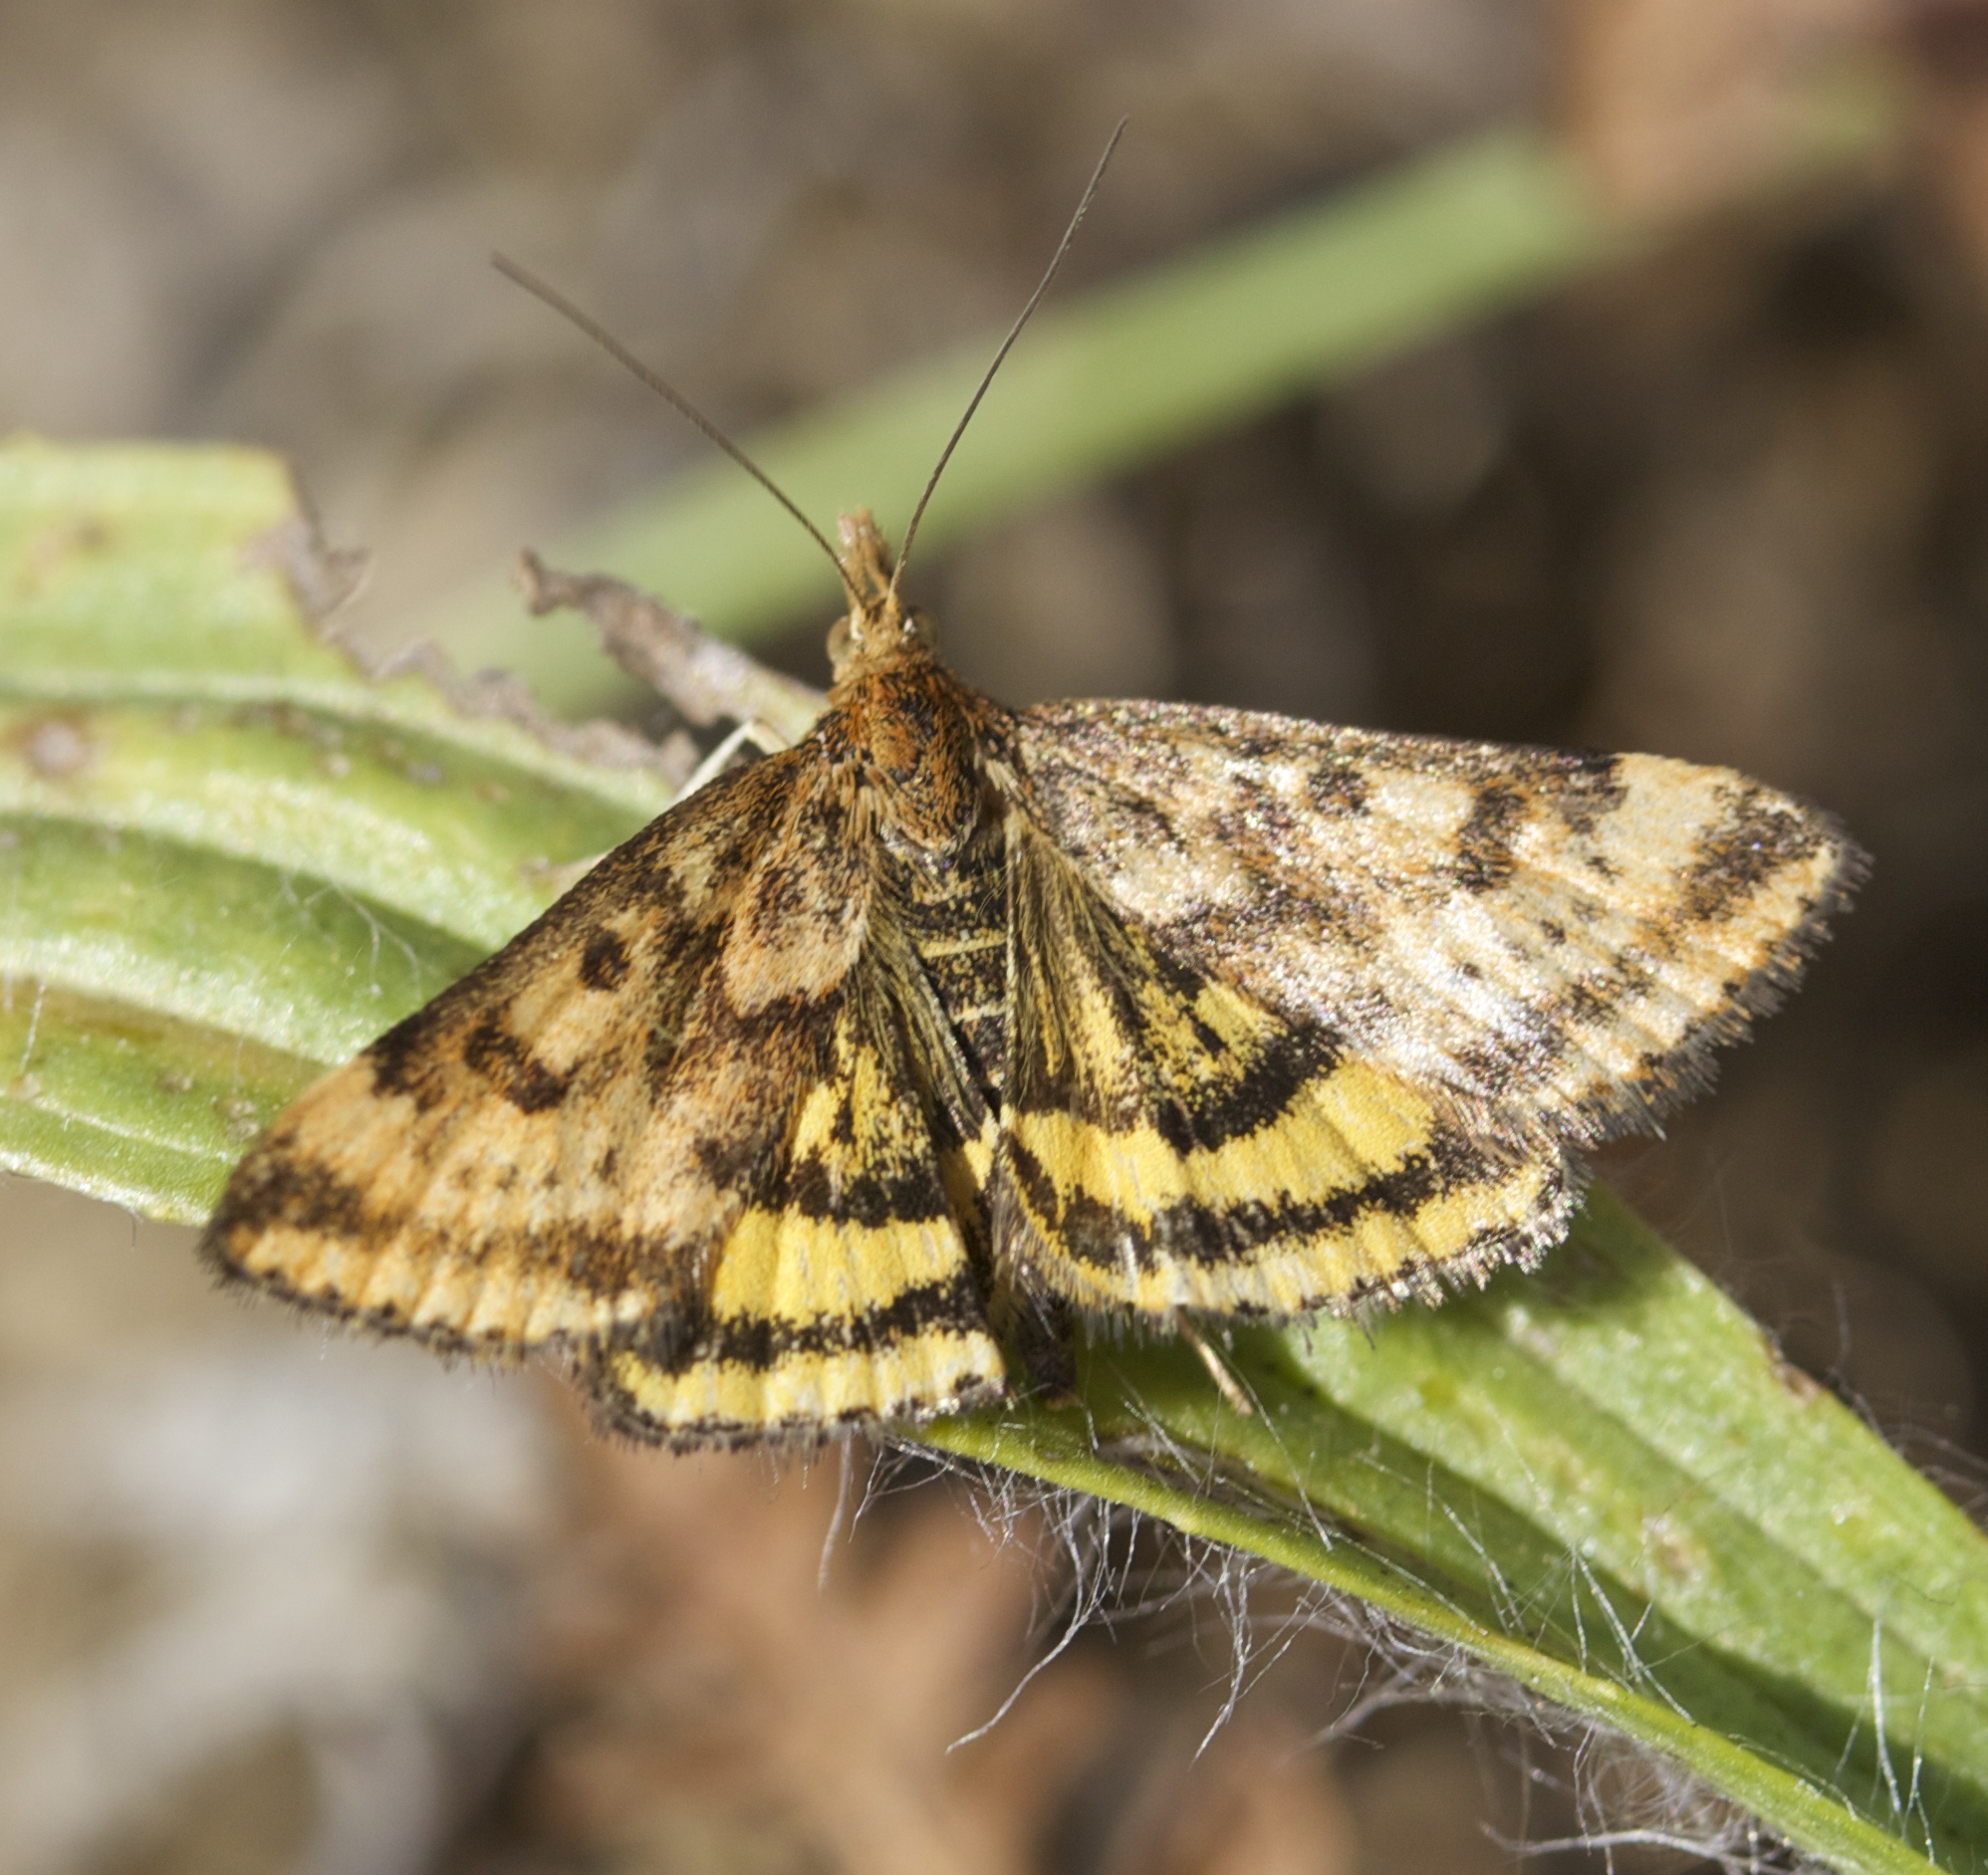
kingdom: Animalia
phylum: Arthropoda
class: Insecta
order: Lepidoptera
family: Crambidae
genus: Pyrausta
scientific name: Pyrausta subsequalis
